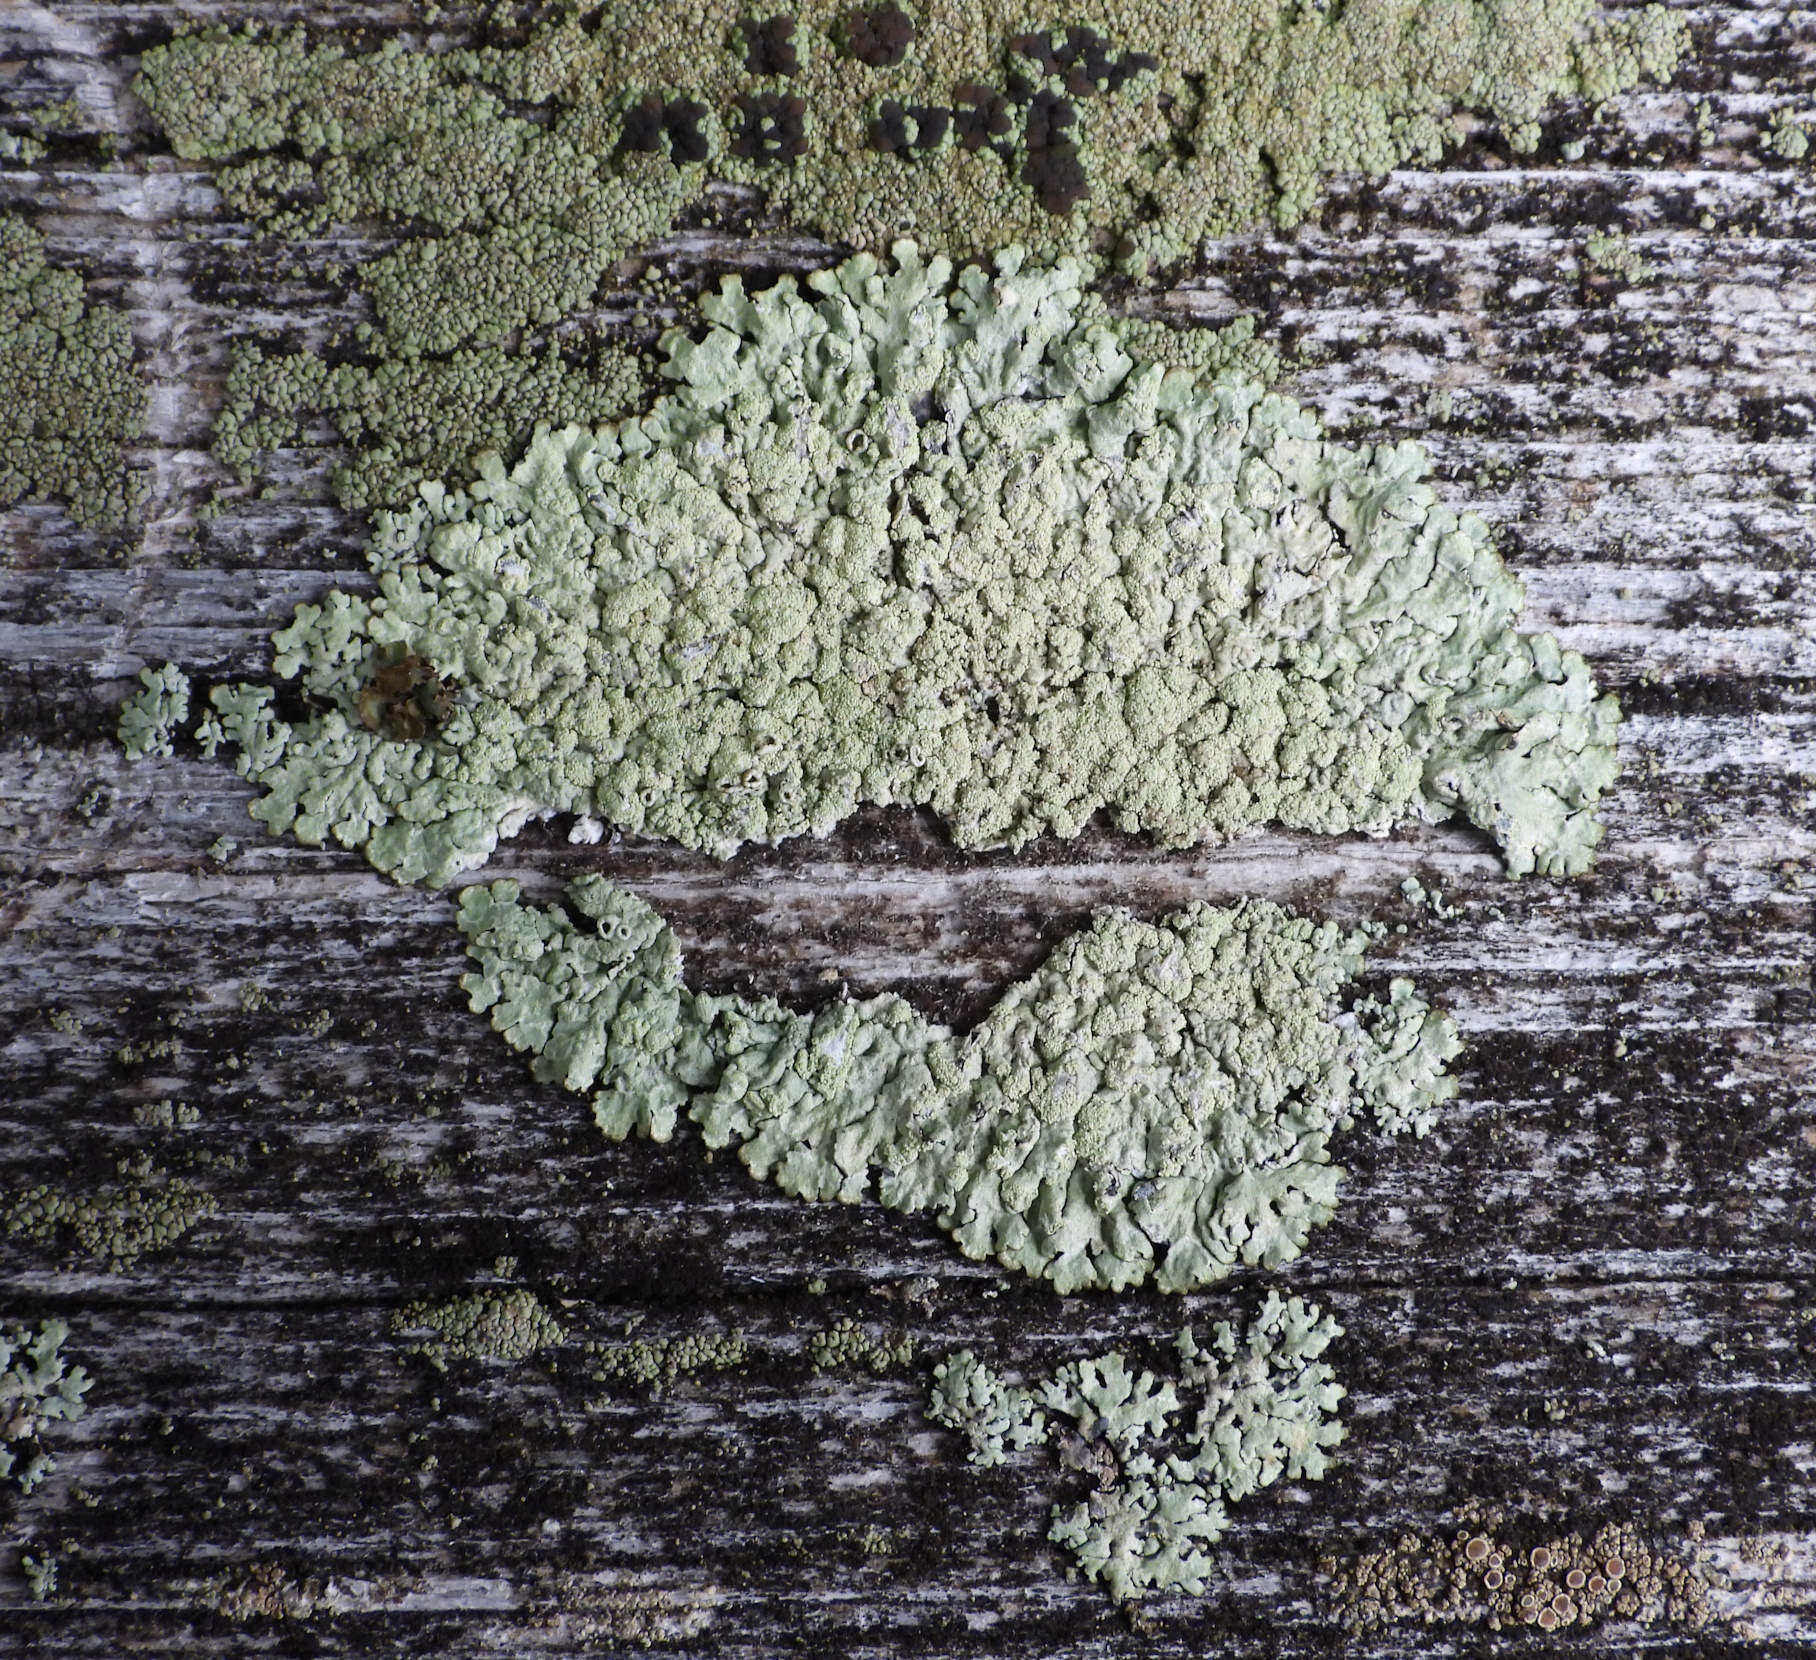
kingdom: Fungi
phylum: Ascomycota
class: Lecanoromycetes
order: Lecanorales
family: Parmeliaceae
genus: Parmeliopsis
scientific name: Parmeliopsis ambigua
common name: Green starburst lichen
